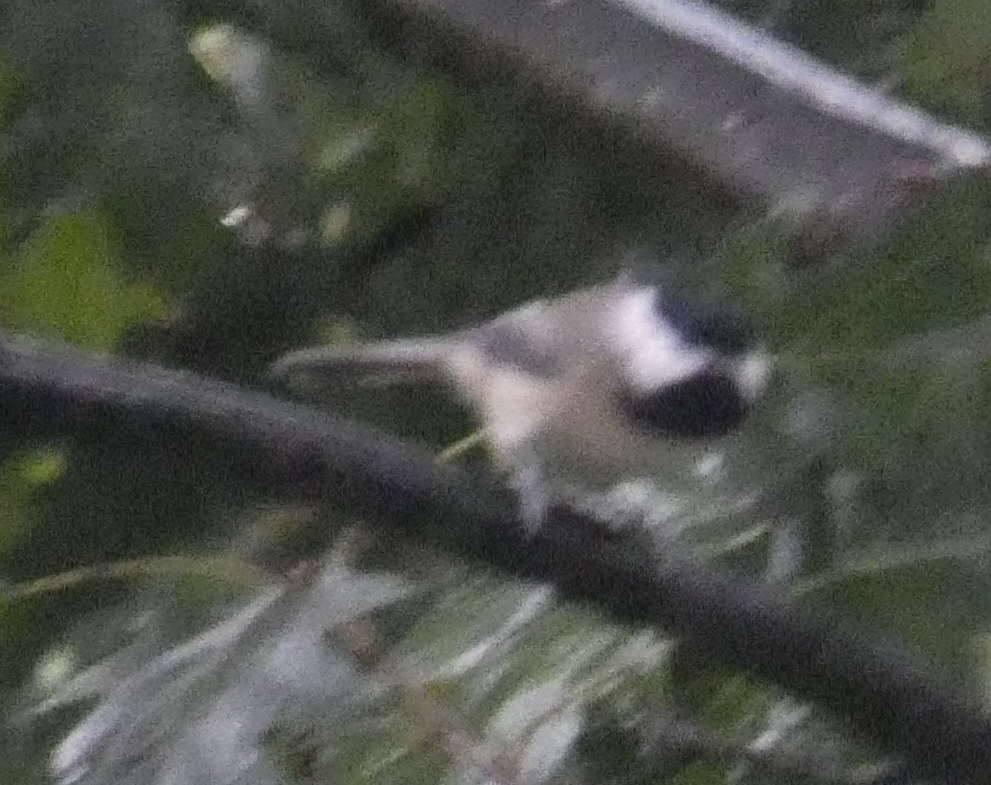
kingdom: Animalia
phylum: Chordata
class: Aves
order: Passeriformes
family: Paridae
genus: Poecile
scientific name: Poecile carolinensis
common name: Carolina chickadee
